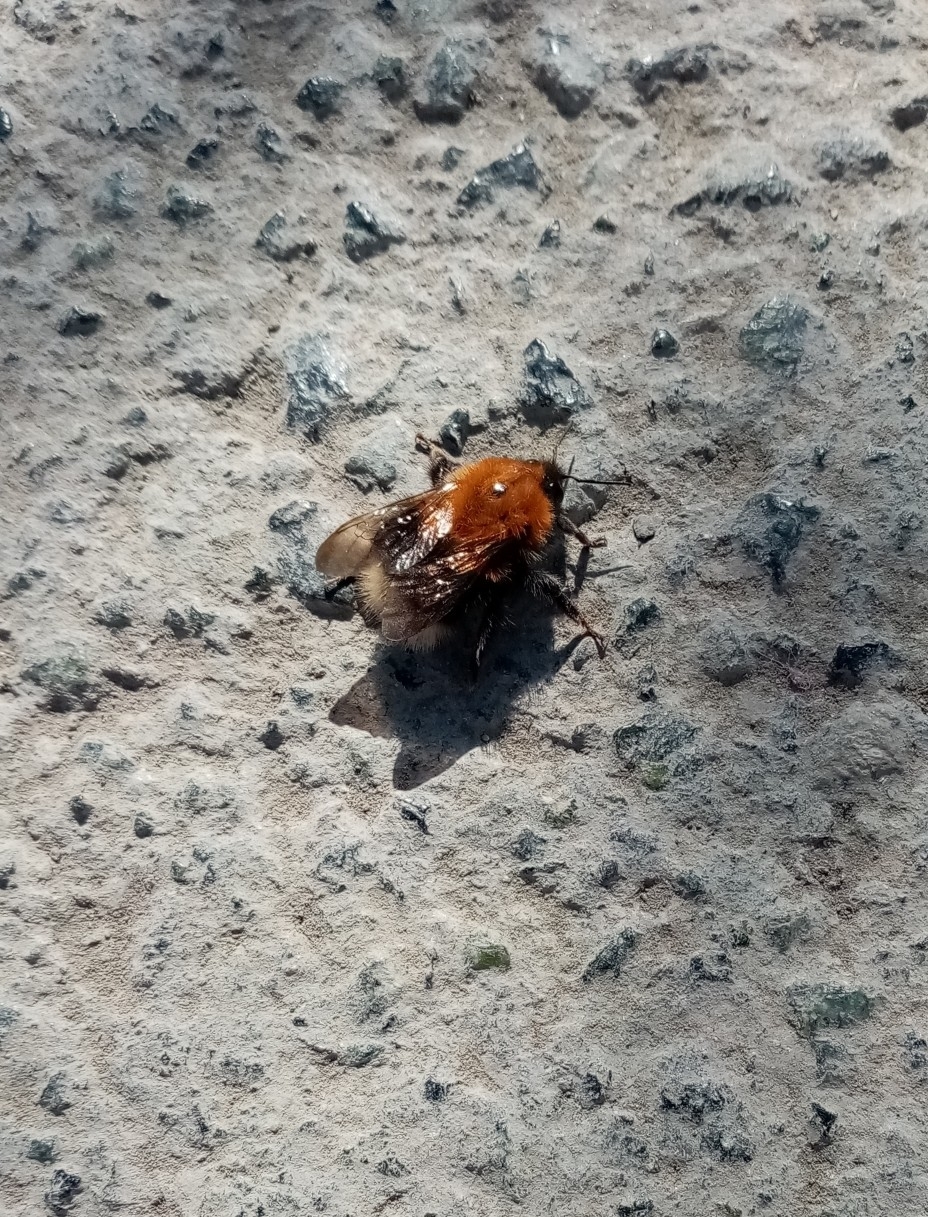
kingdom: Animalia
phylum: Arthropoda
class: Insecta
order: Hymenoptera
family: Apidae
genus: Bombus
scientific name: Bombus hypnorum
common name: New garden bumblebee
